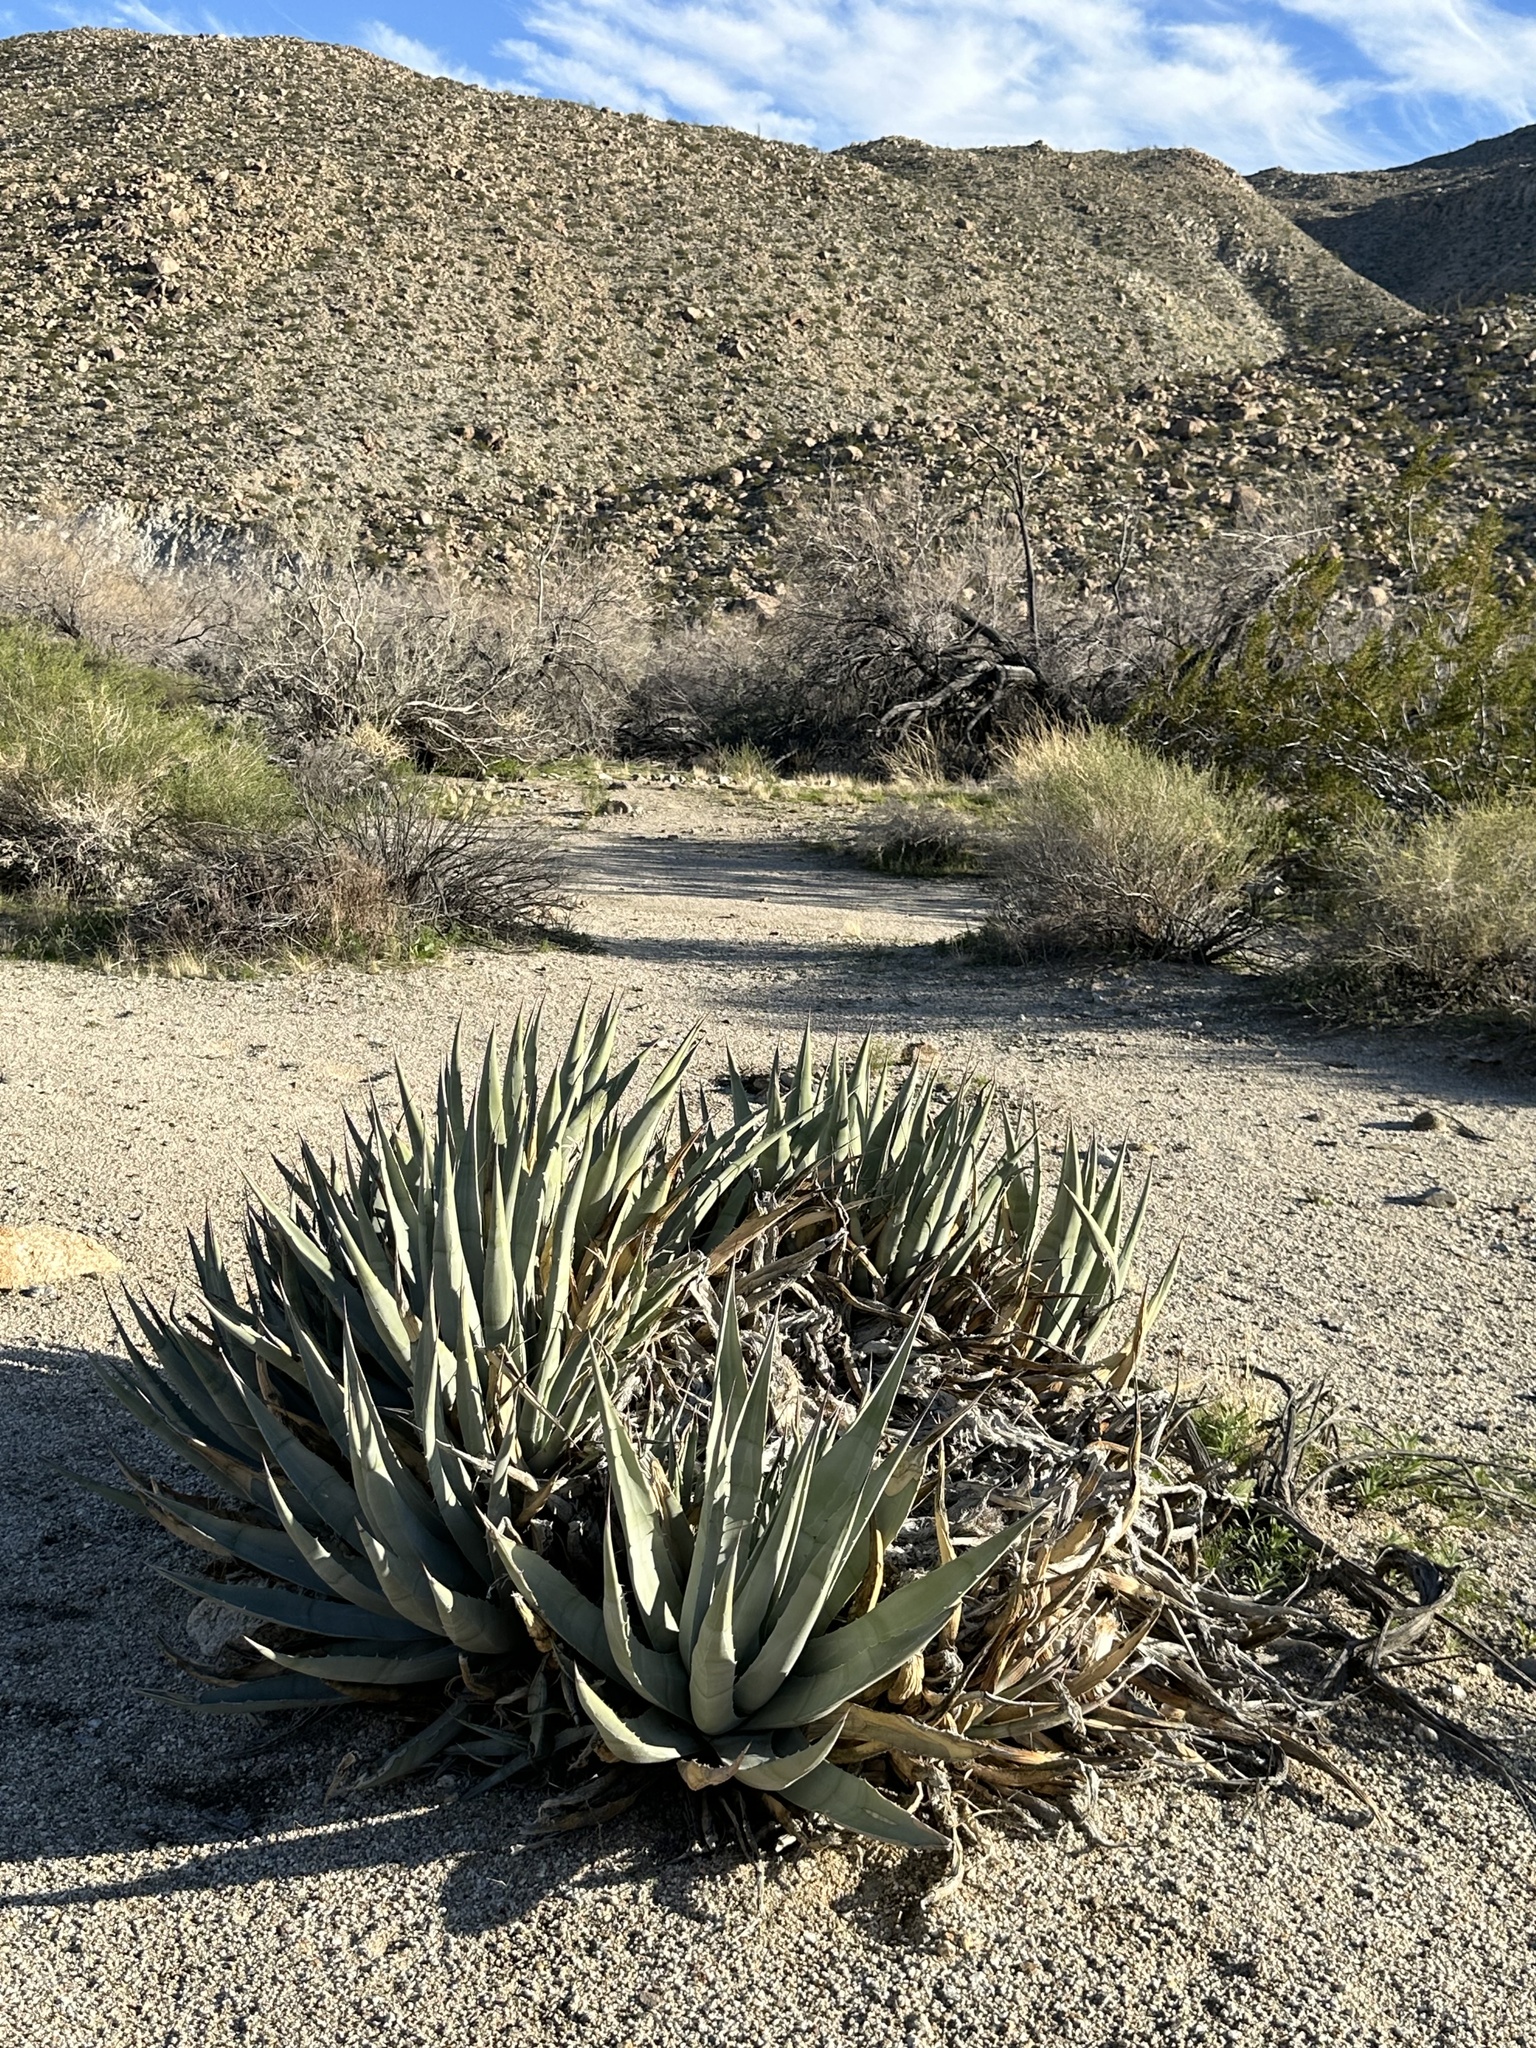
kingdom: Plantae
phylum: Tracheophyta
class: Liliopsida
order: Asparagales
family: Asparagaceae
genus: Agave
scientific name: Agave deserti
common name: Desert agave
